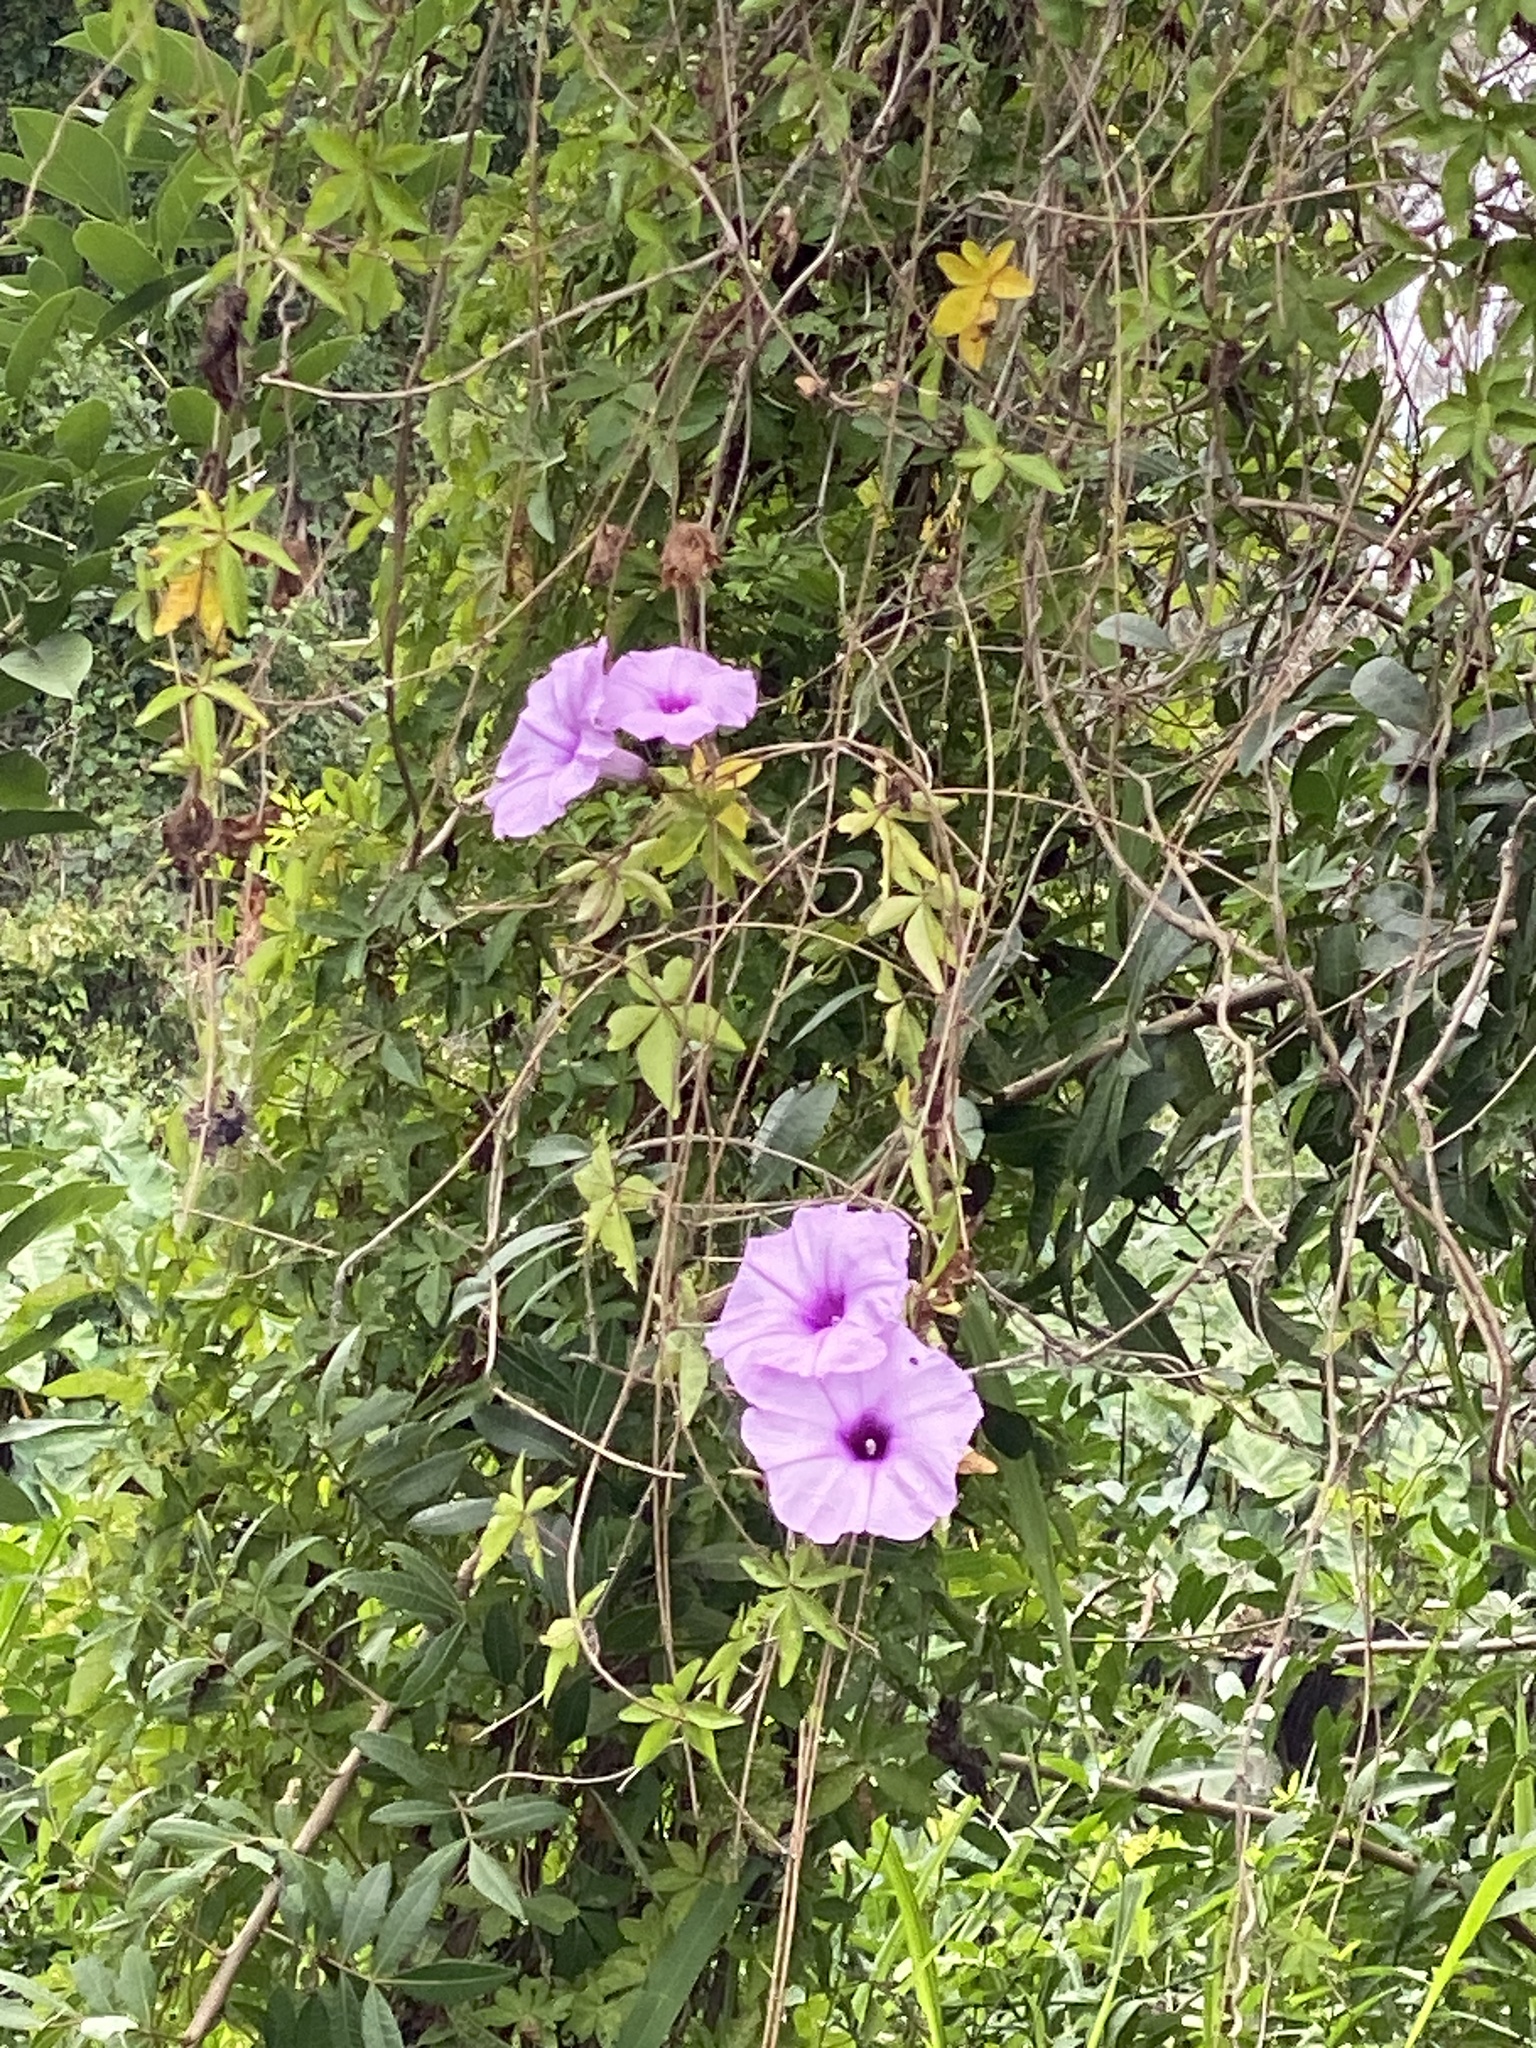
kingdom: Plantae
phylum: Tracheophyta
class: Magnoliopsida
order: Solanales
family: Convolvulaceae
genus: Ipomoea
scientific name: Ipomoea cairica
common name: Mile a minute vine
